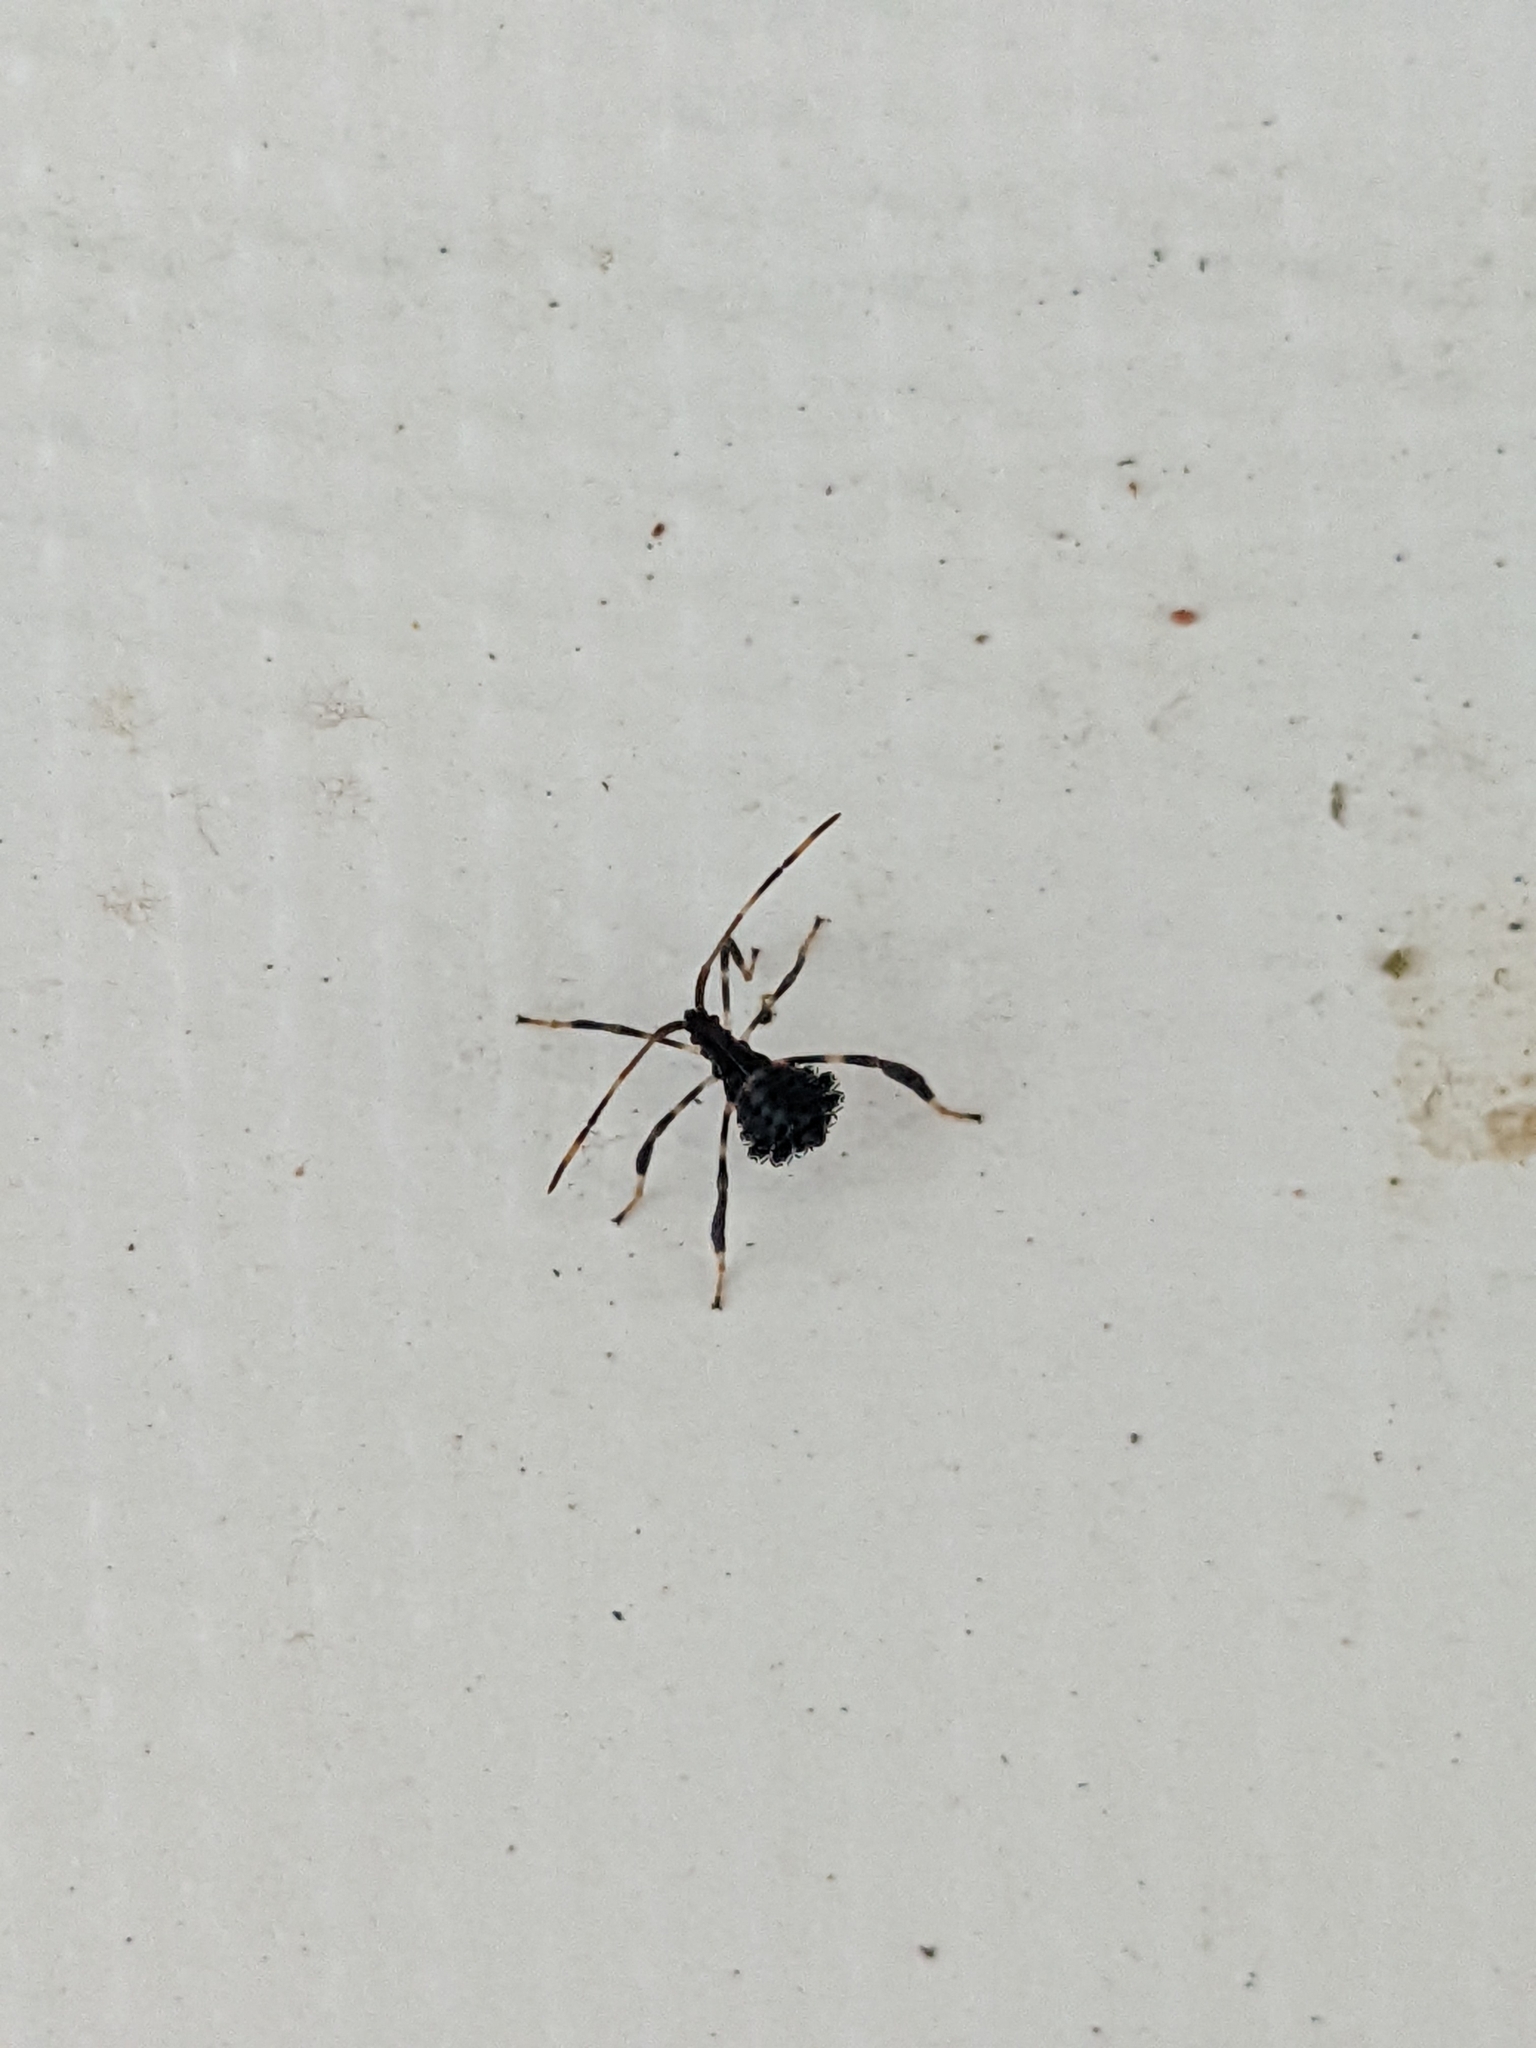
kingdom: Animalia
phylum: Arthropoda
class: Insecta
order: Hemiptera
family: Coreidae
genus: Acanthocephala
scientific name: Acanthocephala terminalis
